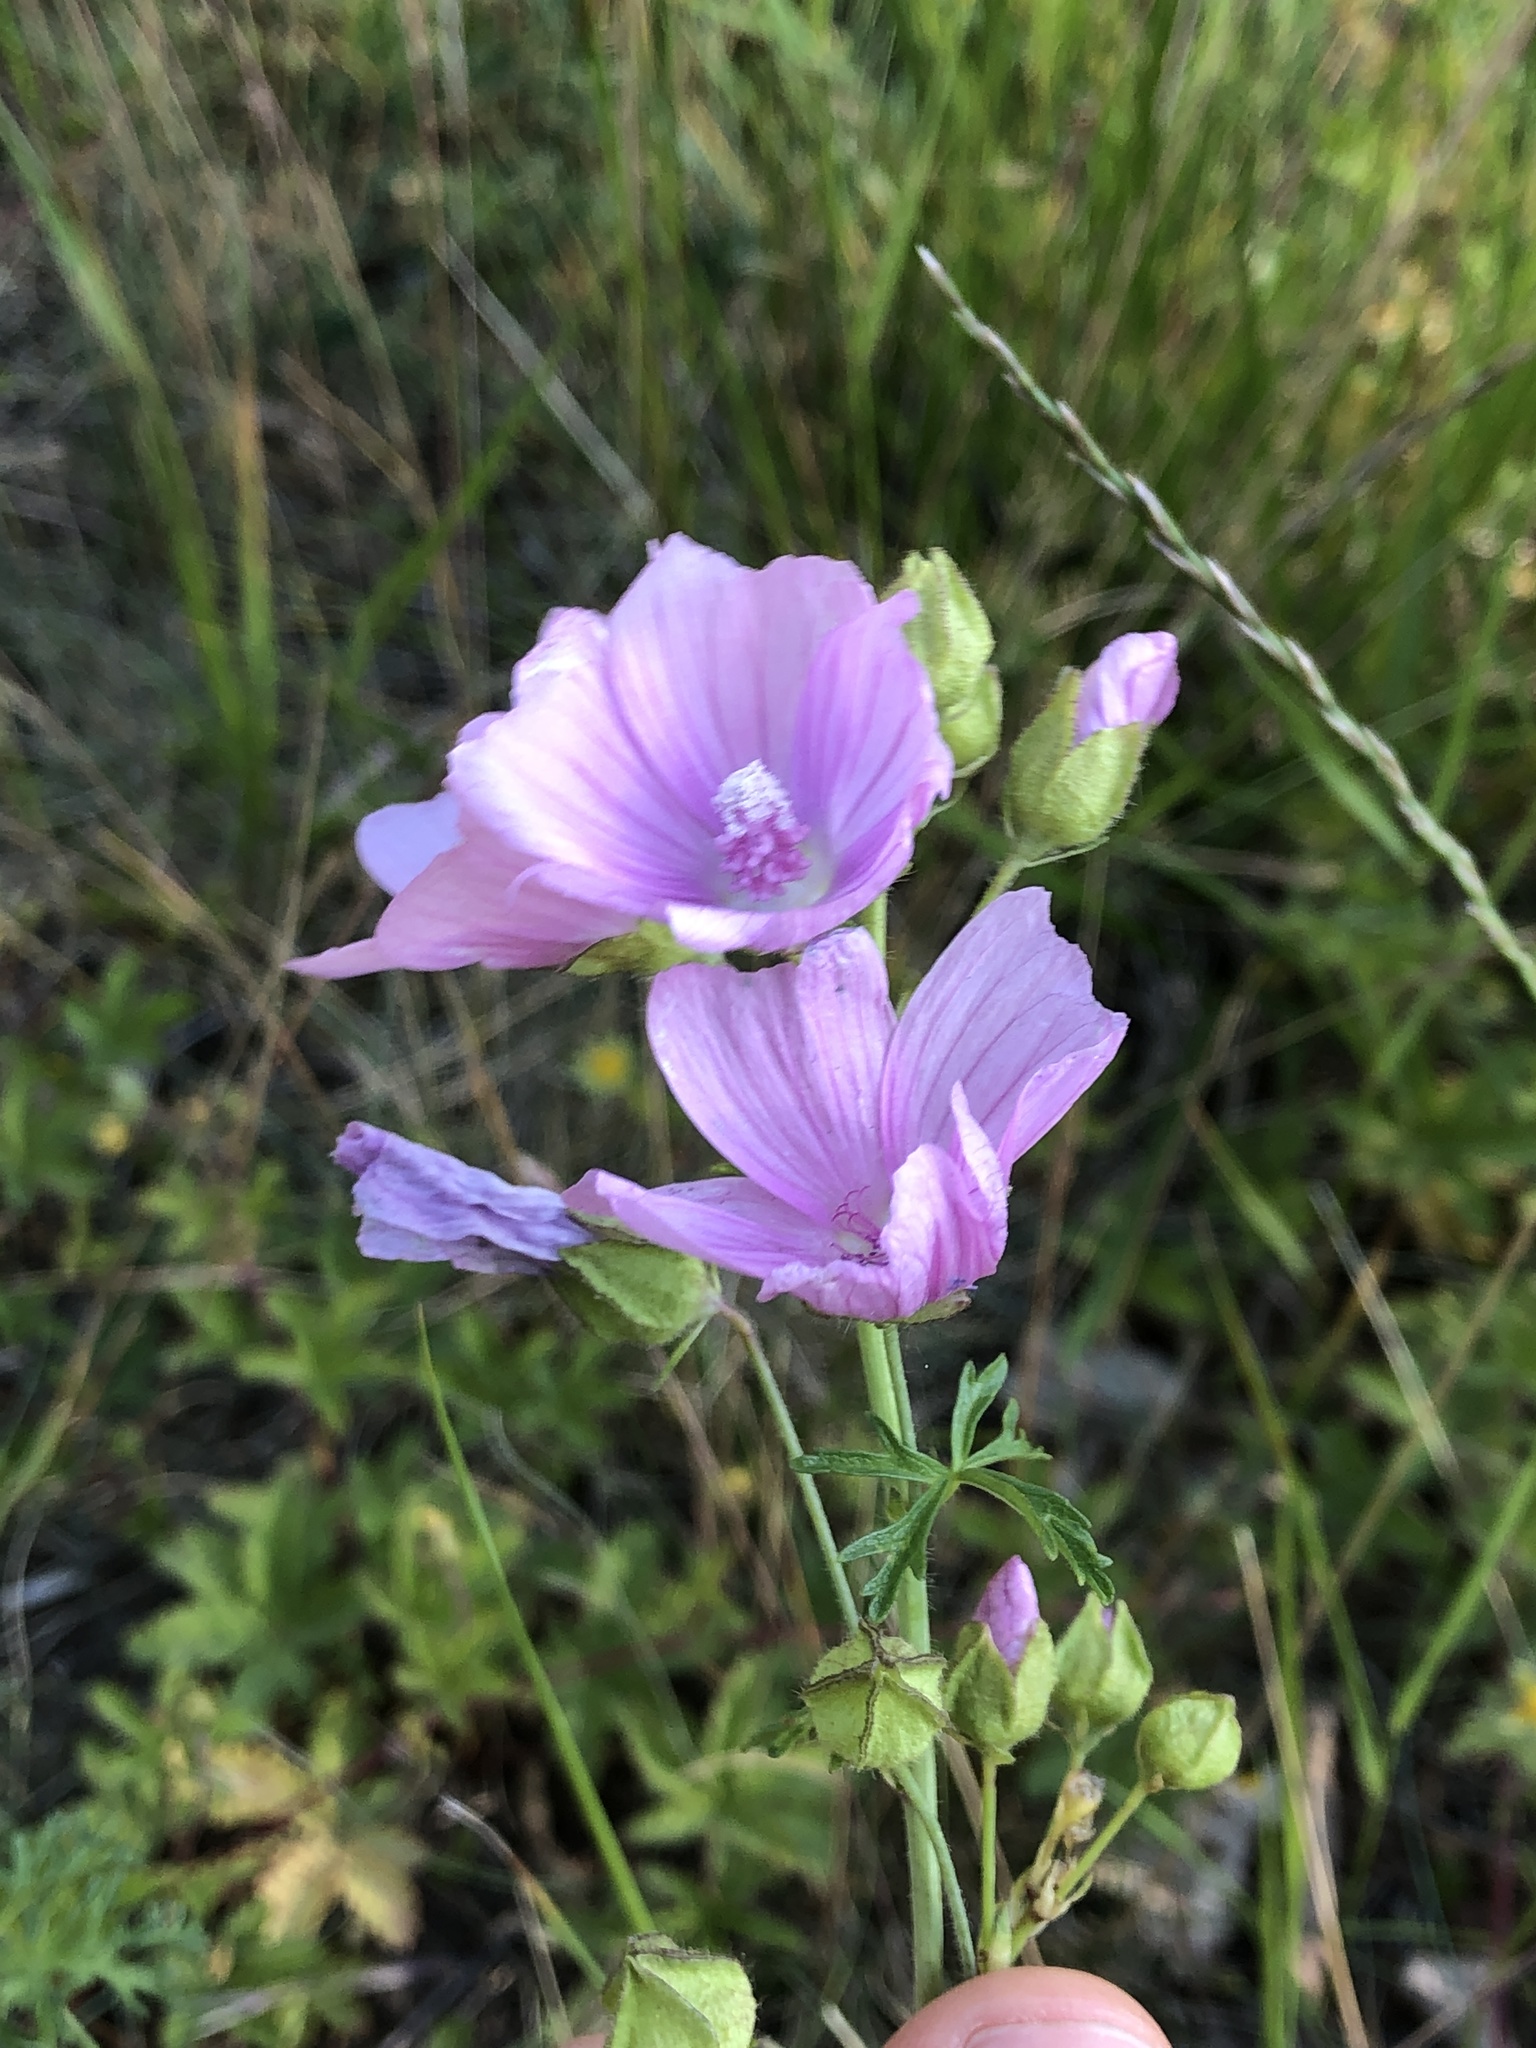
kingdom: Plantae
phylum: Tracheophyta
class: Magnoliopsida
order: Malvales
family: Malvaceae
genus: Malva
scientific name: Malva moschata
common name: Musk mallow
